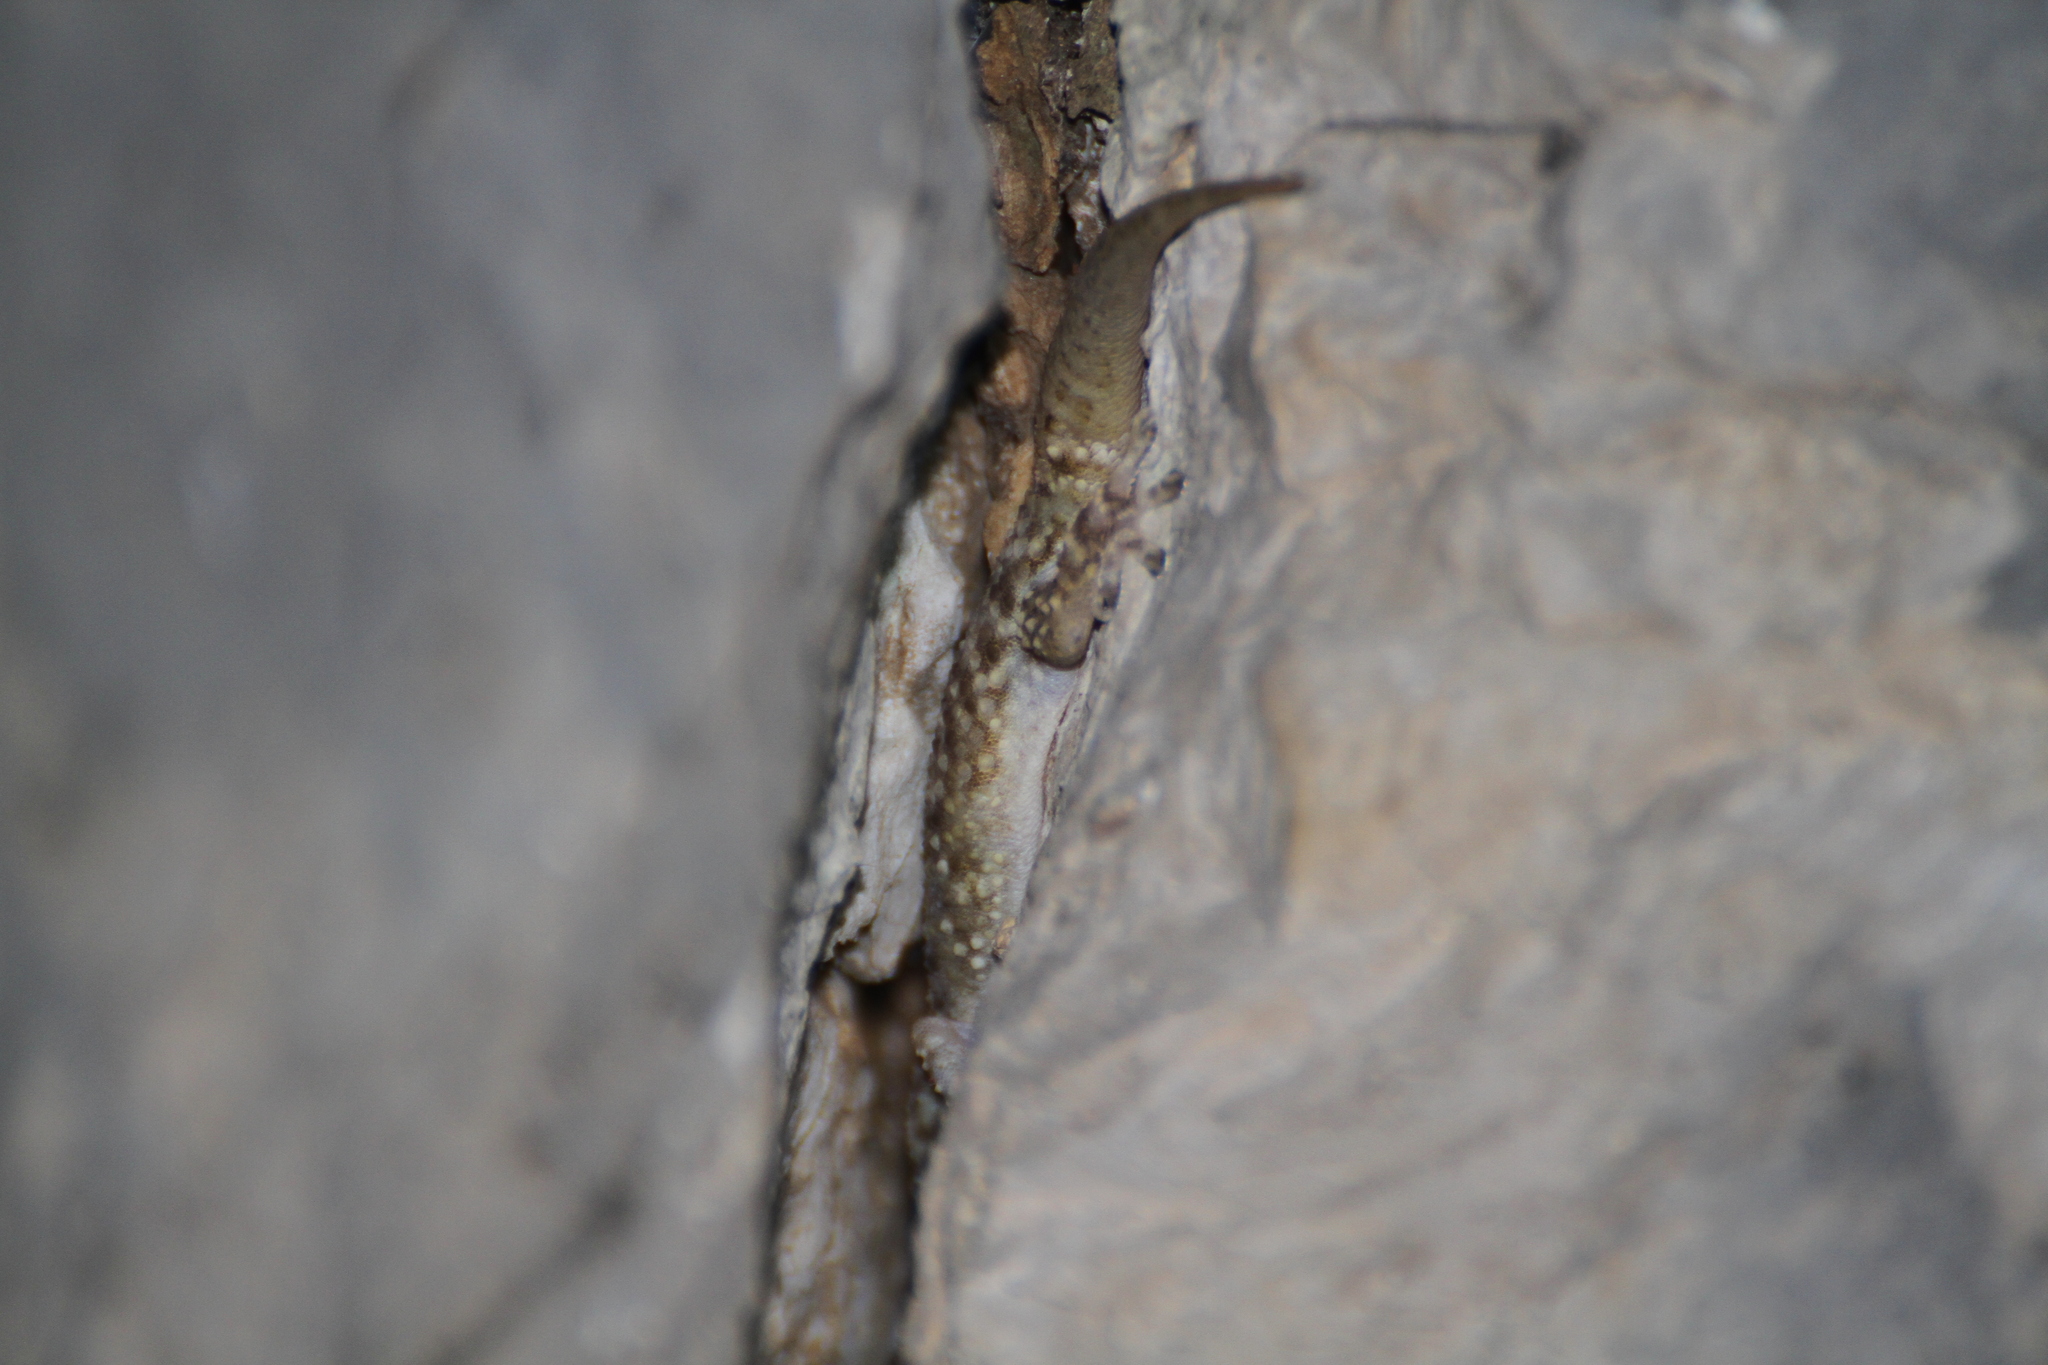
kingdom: Animalia
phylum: Chordata
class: Squamata
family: Gekkonidae
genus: Hemidactylus
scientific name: Hemidactylus turcicus
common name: Turkish gecko
